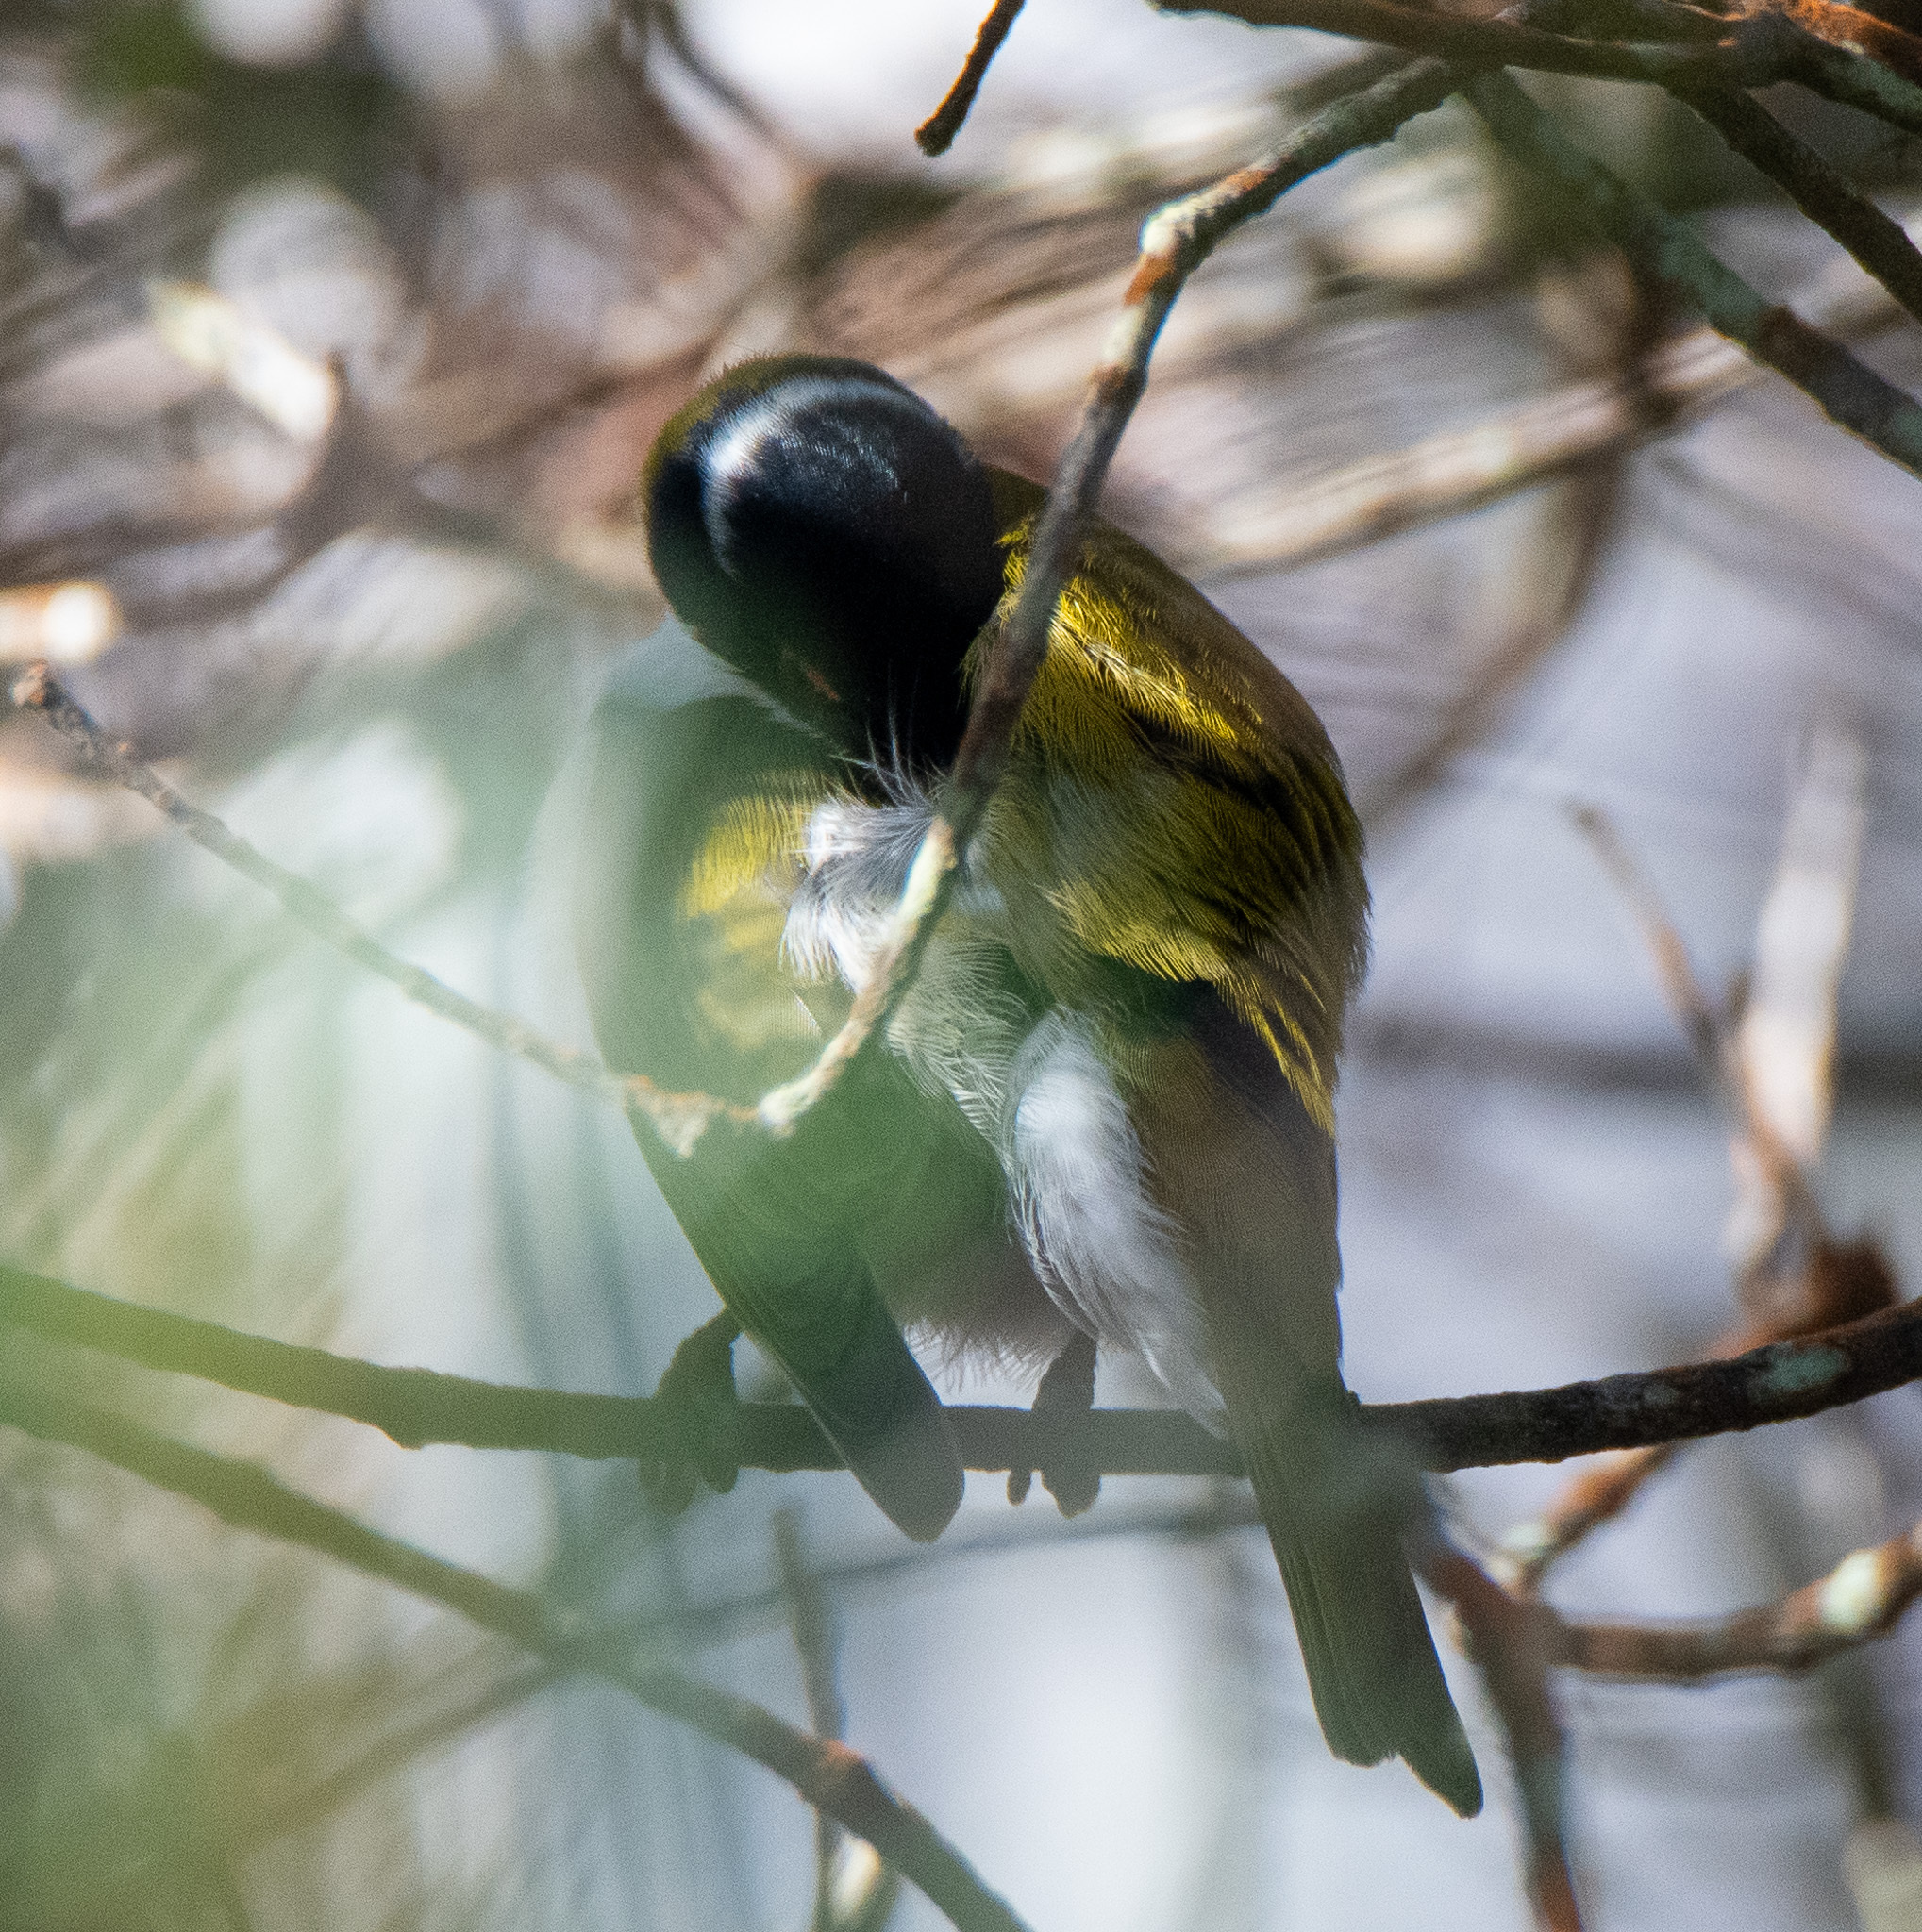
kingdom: Animalia
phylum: Chordata
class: Aves
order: Passeriformes
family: Meliphagidae
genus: Melithreptus
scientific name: Melithreptus lunatus
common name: White-naped honeyeater
